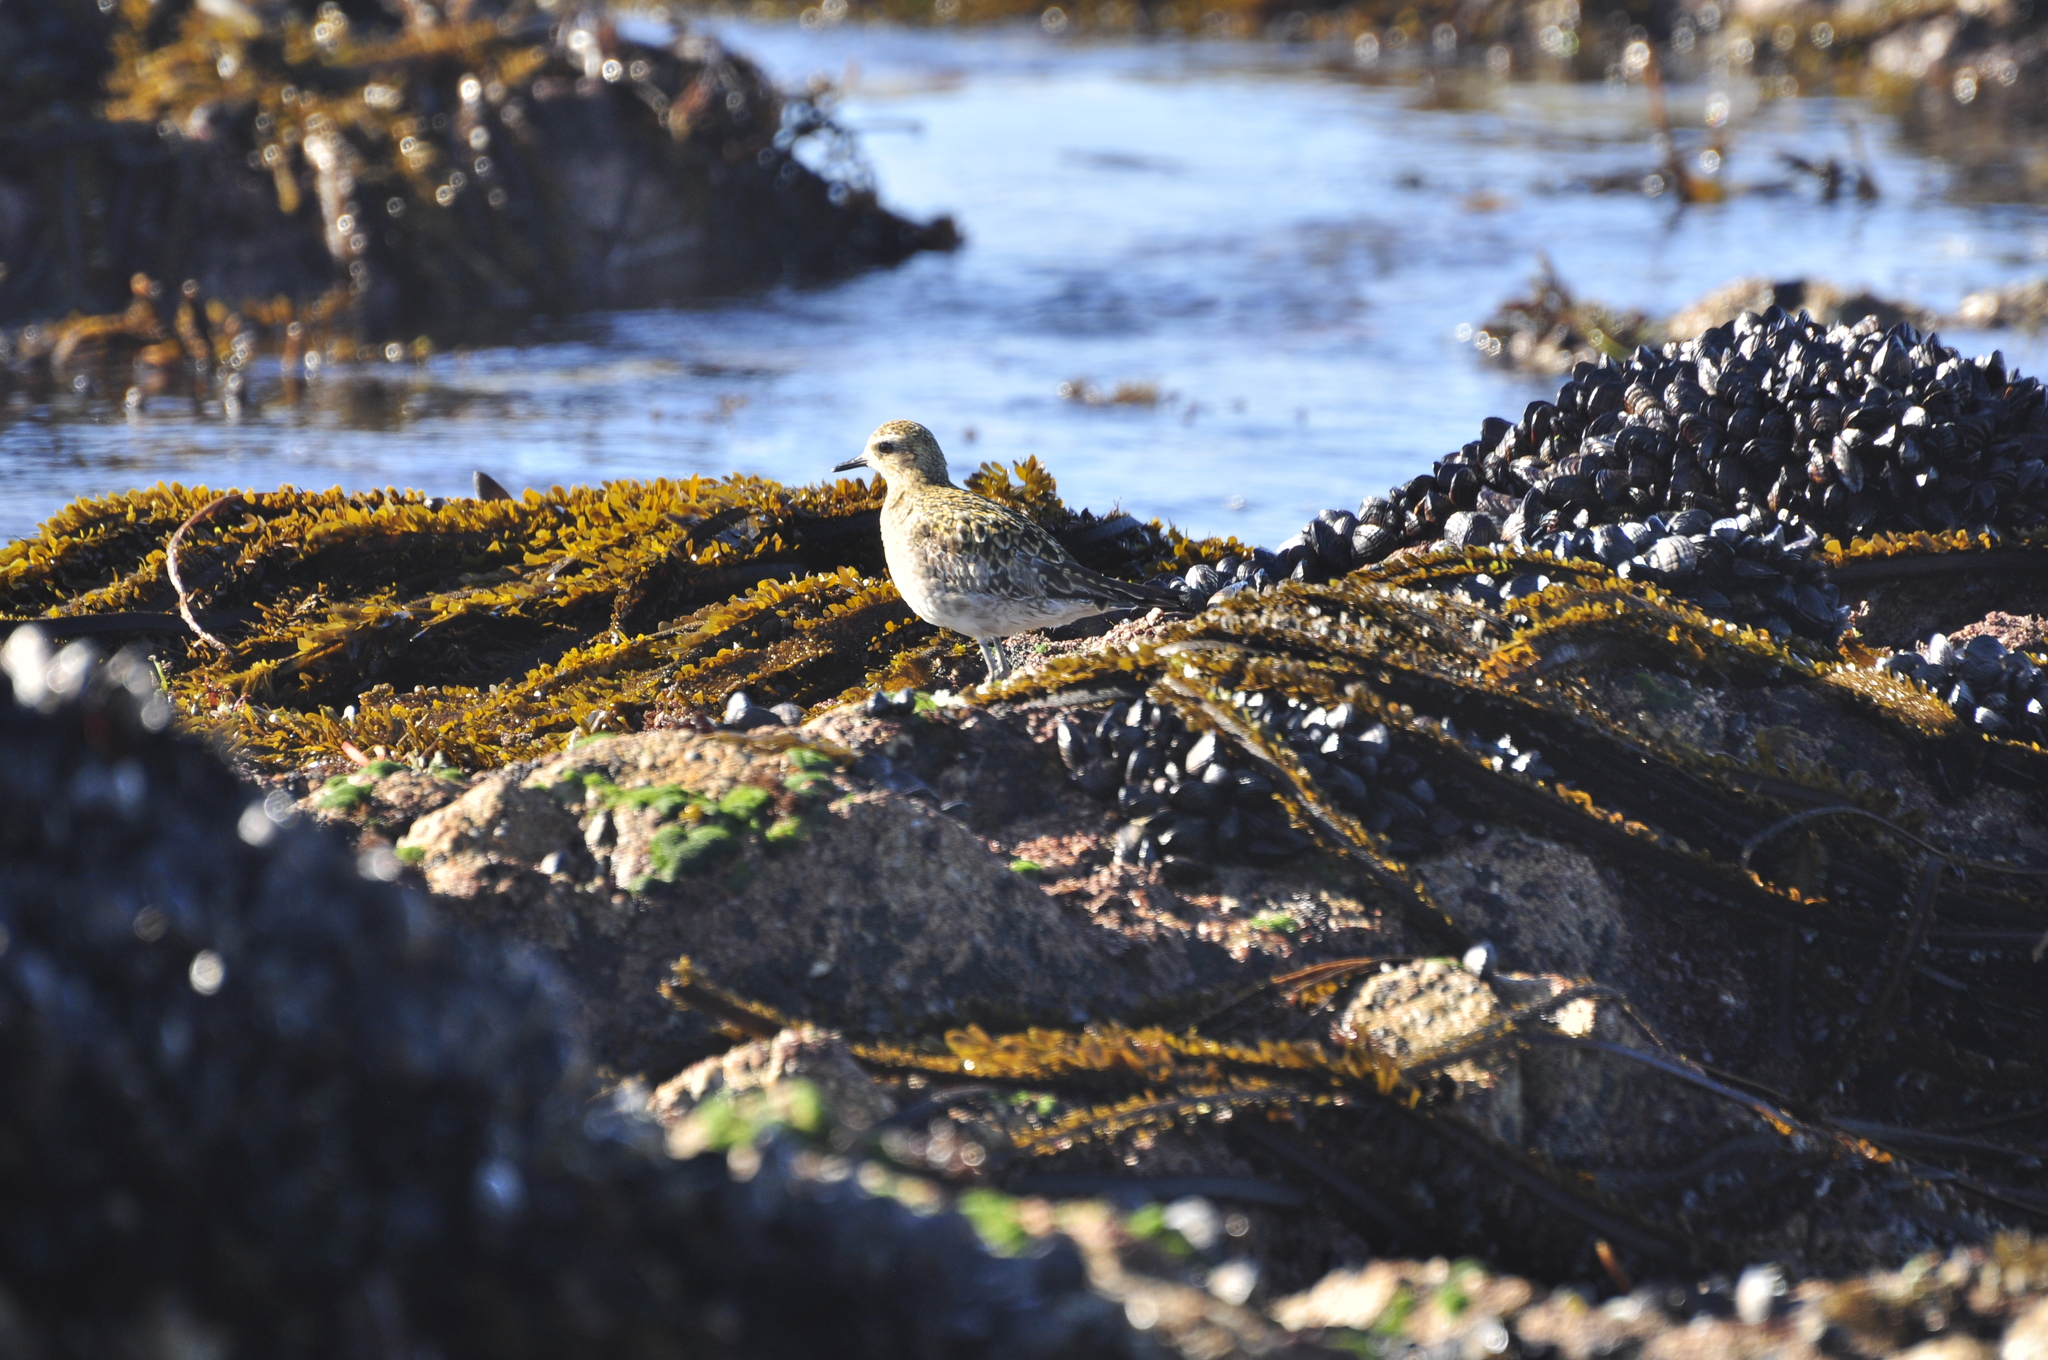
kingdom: Animalia
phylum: Chordata
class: Aves
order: Charadriiformes
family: Charadriidae
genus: Pluvialis
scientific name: Pluvialis fulva
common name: Pacific golden plover
